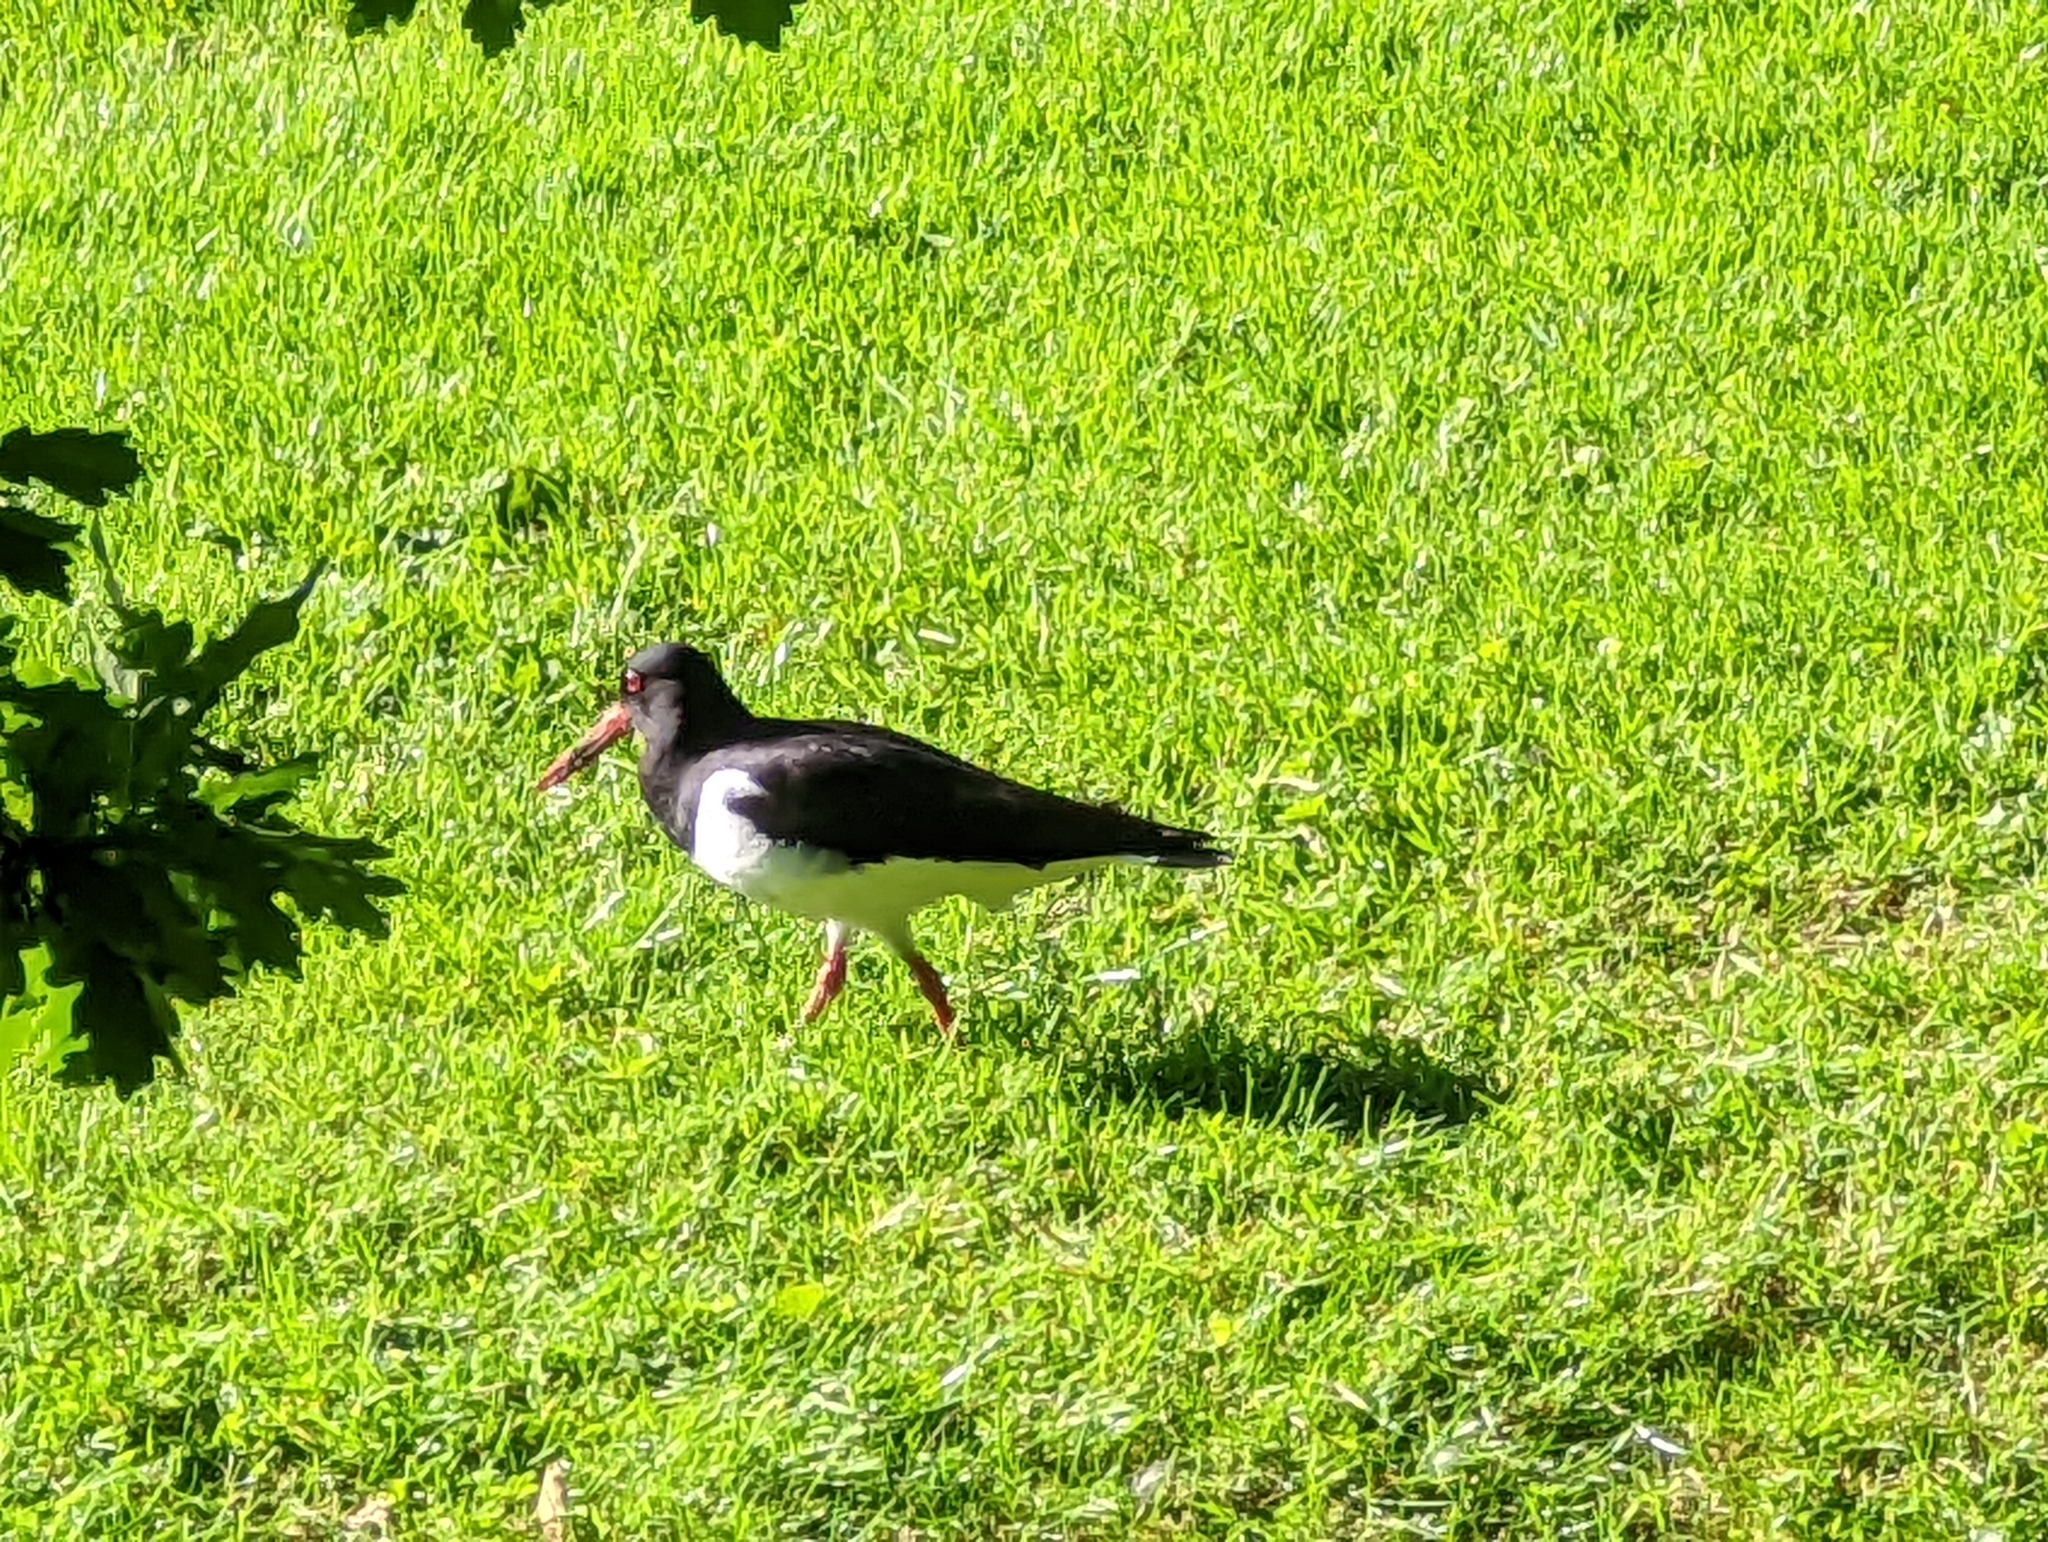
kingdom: Animalia
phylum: Chordata
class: Aves
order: Charadriiformes
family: Haematopodidae
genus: Haematopus
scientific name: Haematopus ostralegus
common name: Eurasian oystercatcher
